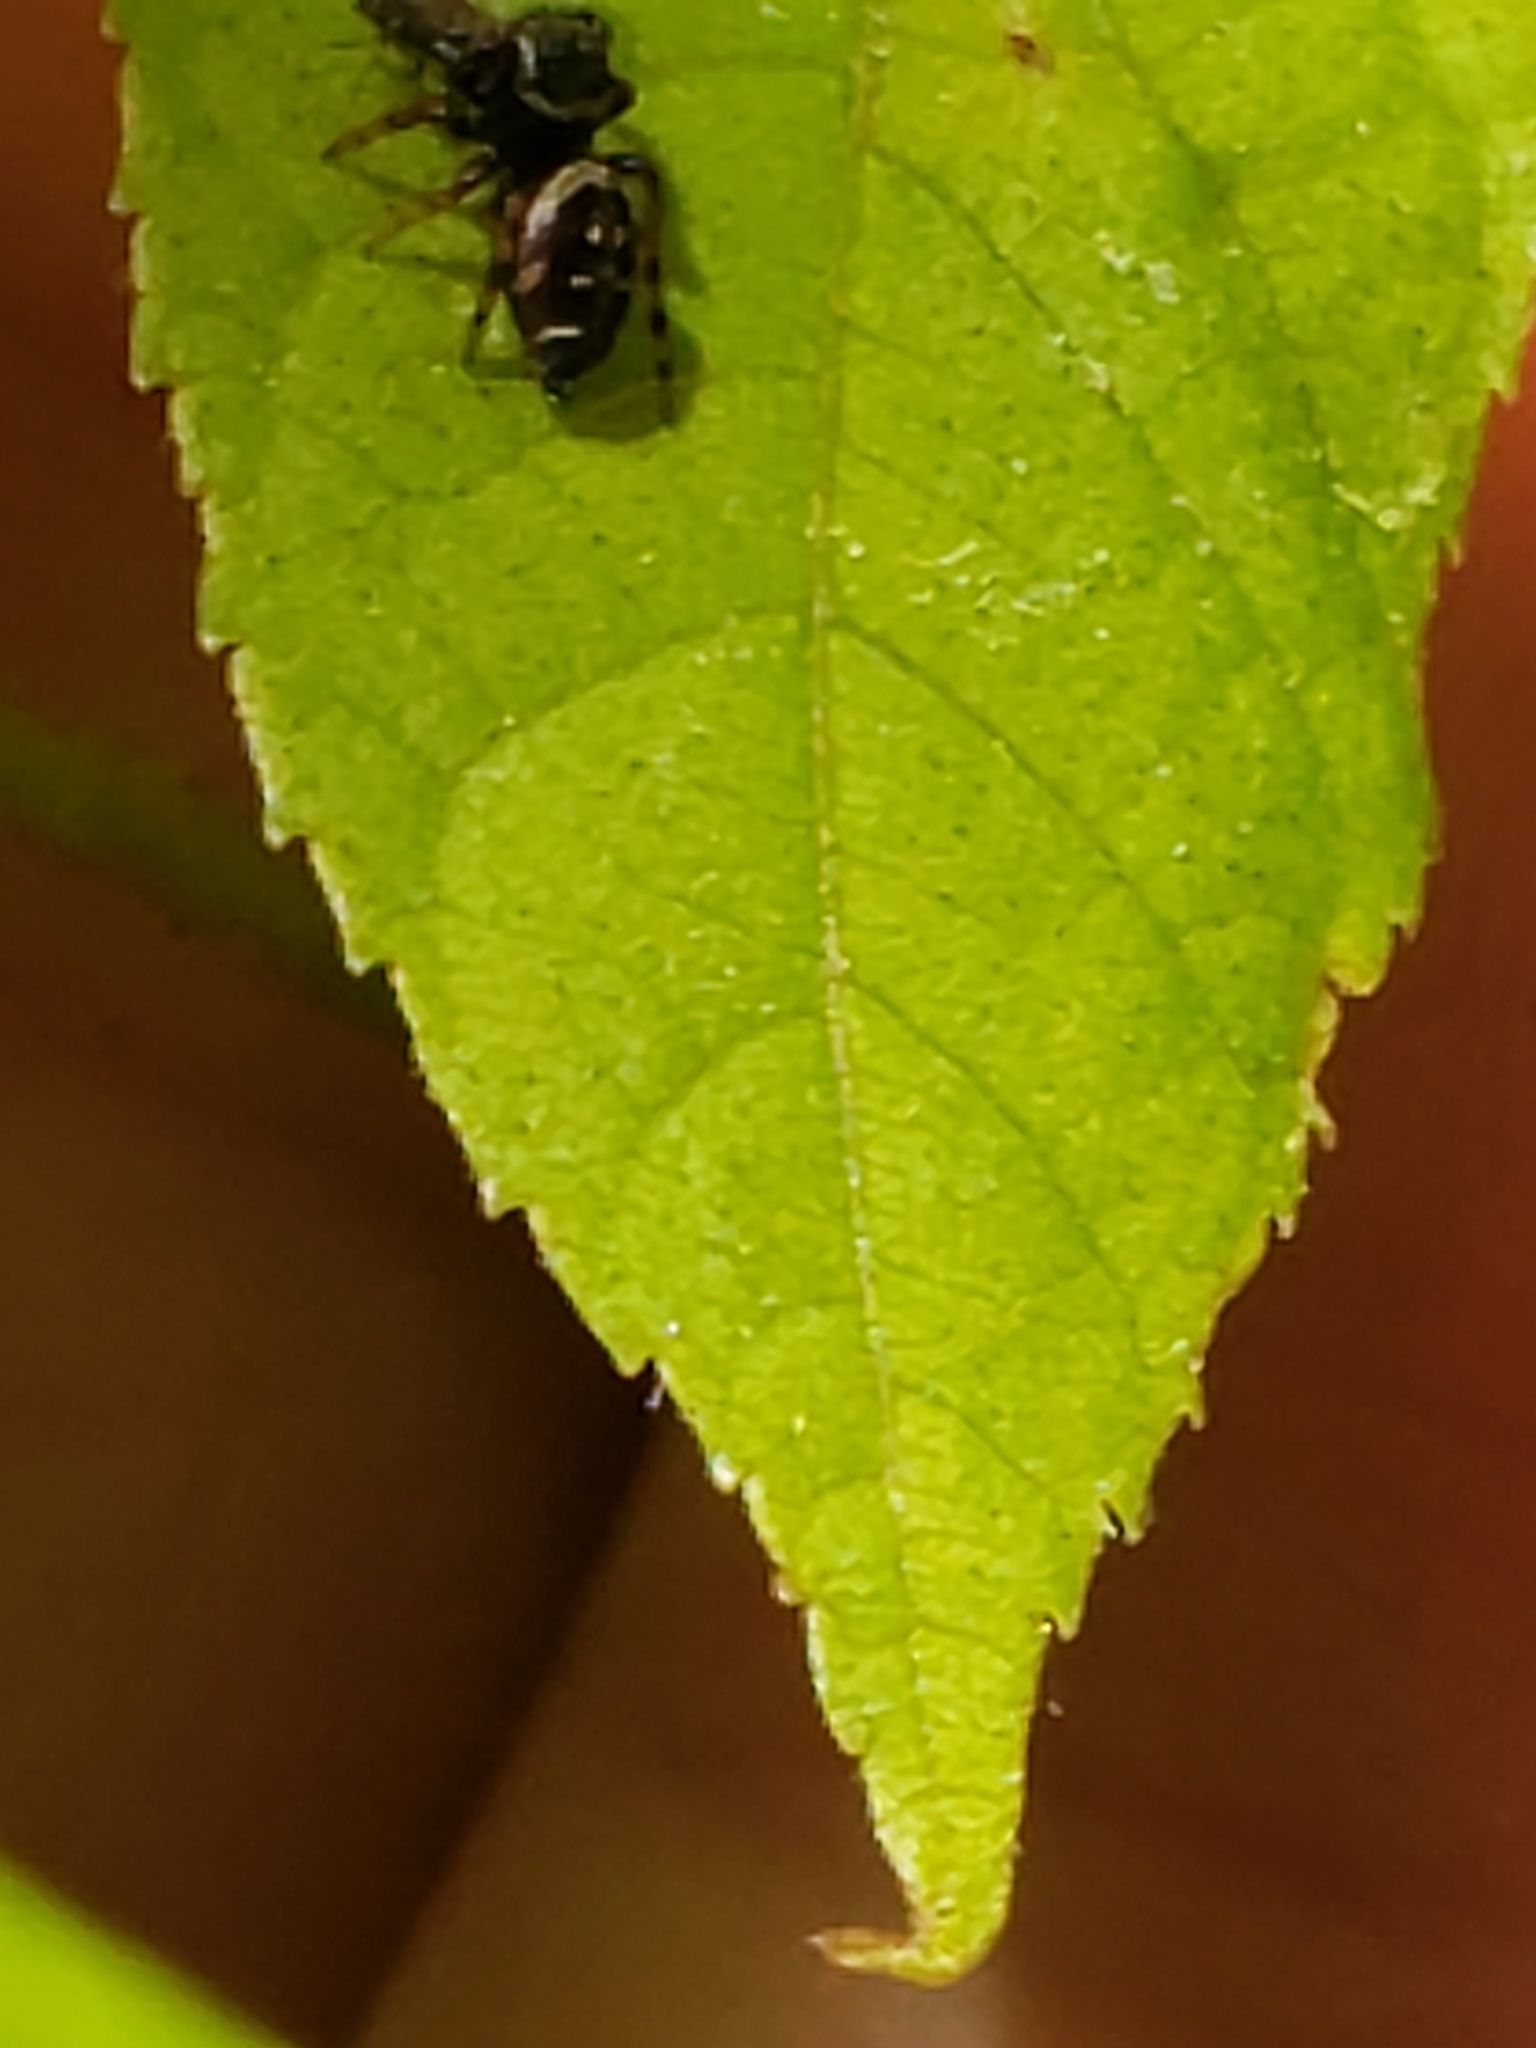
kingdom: Animalia
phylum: Arthropoda
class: Arachnida
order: Araneae
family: Salticidae
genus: Paraphidippus
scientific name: Paraphidippus aurantius
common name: Jumping spiders
